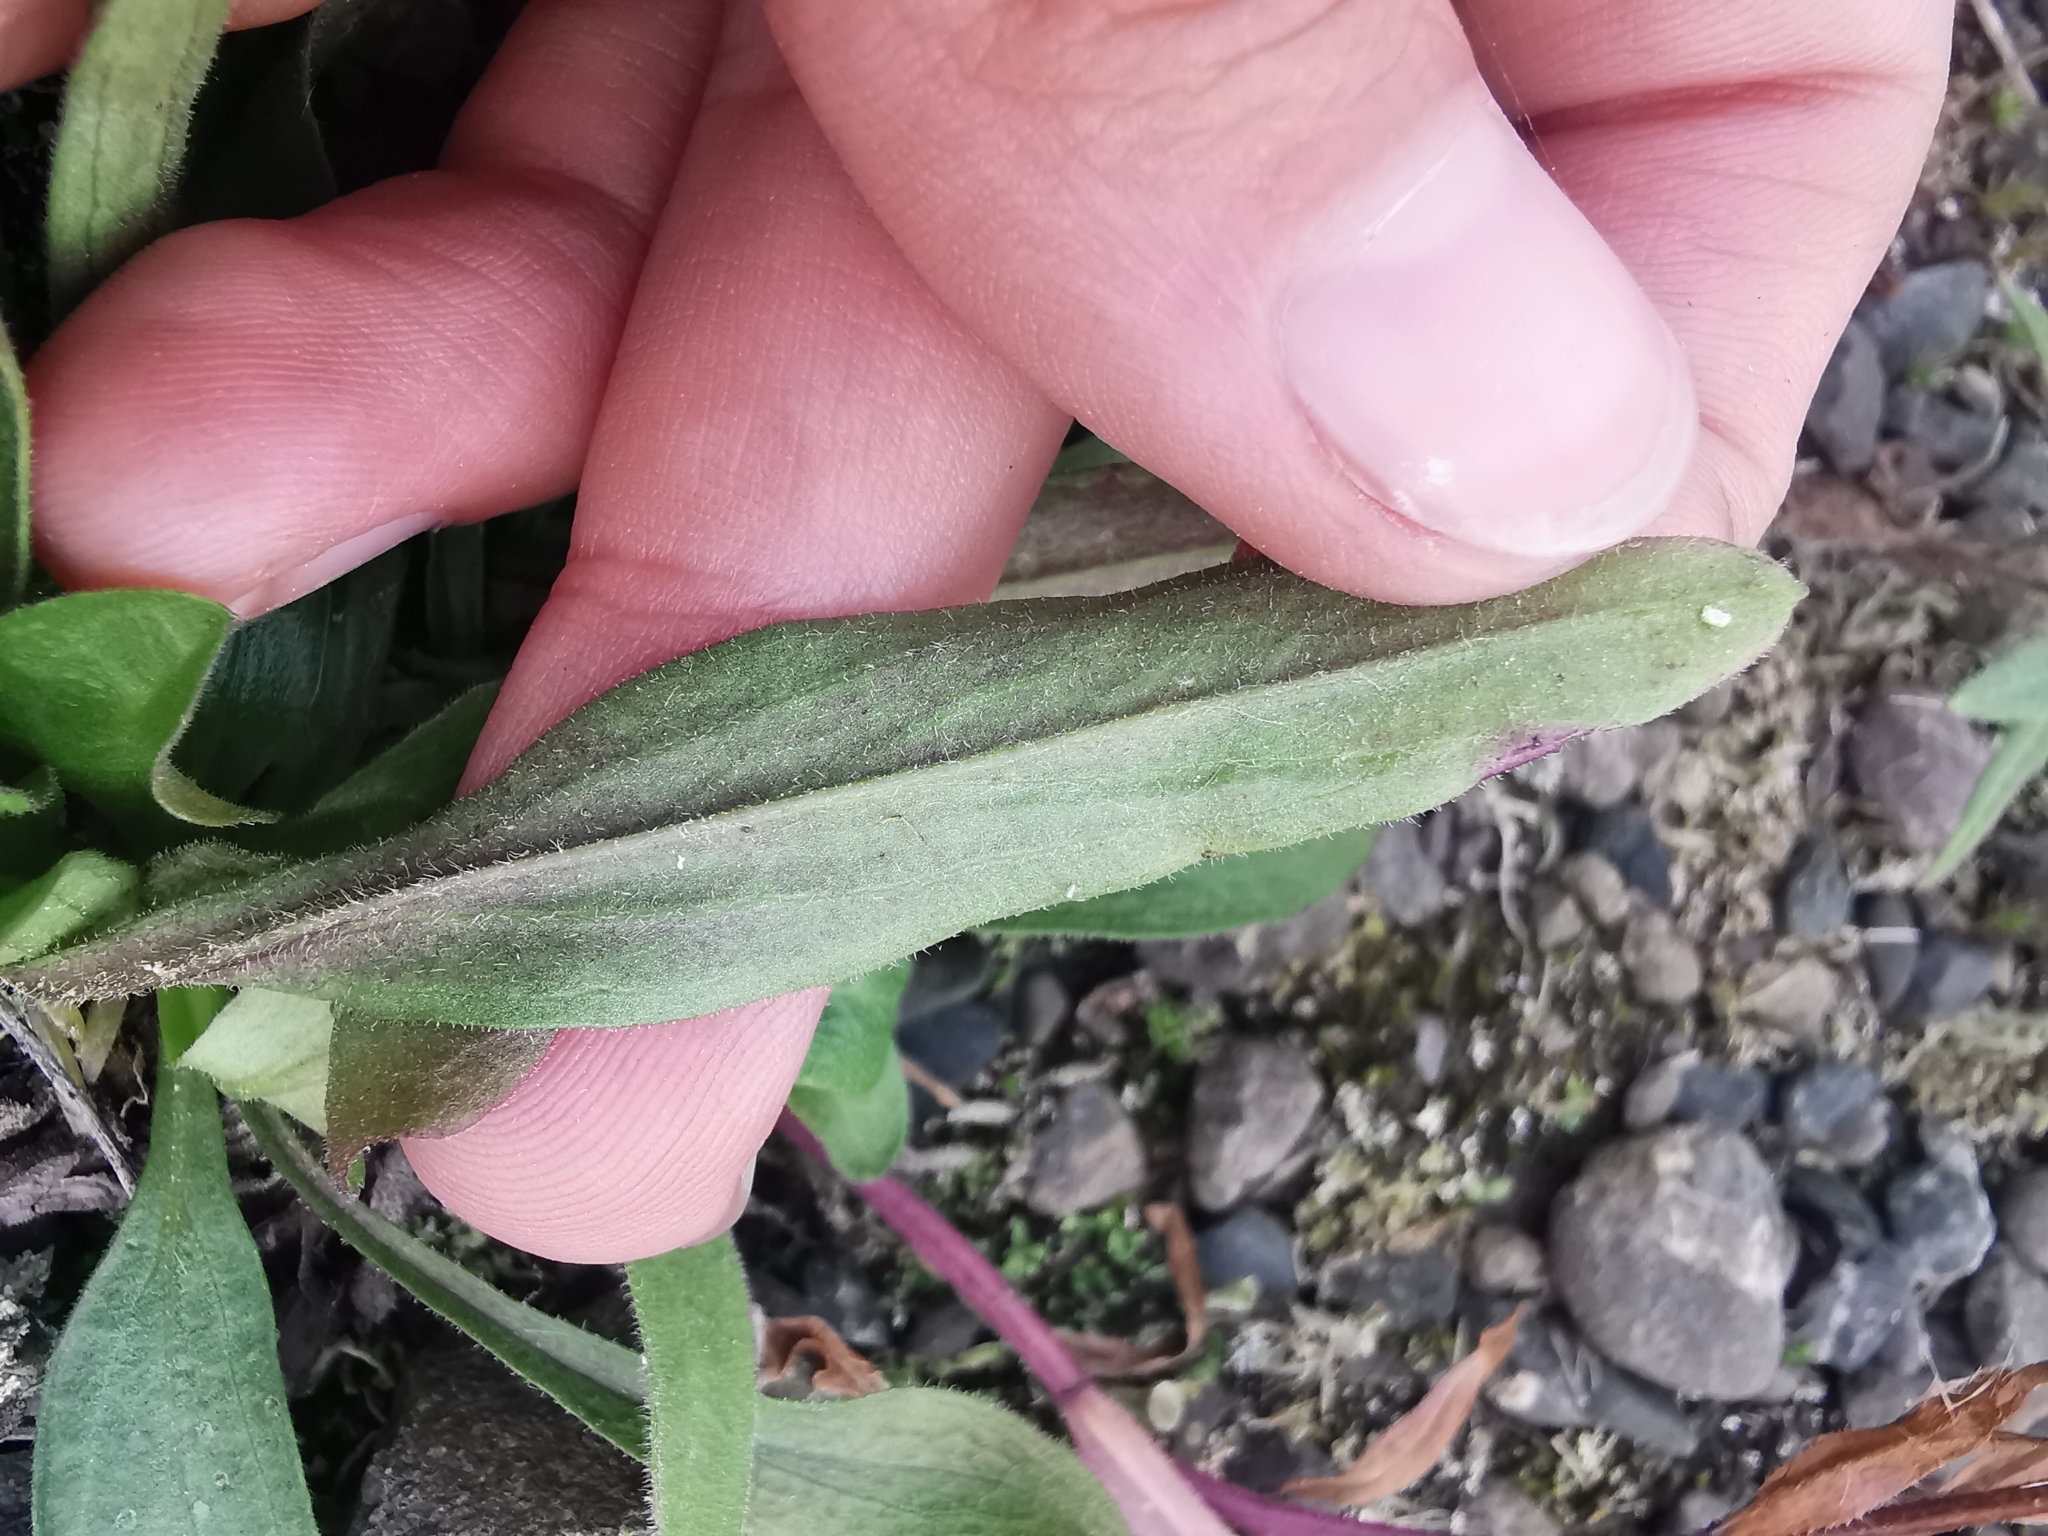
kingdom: Plantae
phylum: Tracheophyta
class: Magnoliopsida
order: Asterales
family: Asteraceae
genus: Eurybia
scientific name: Eurybia sibirica
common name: Arctic aster
